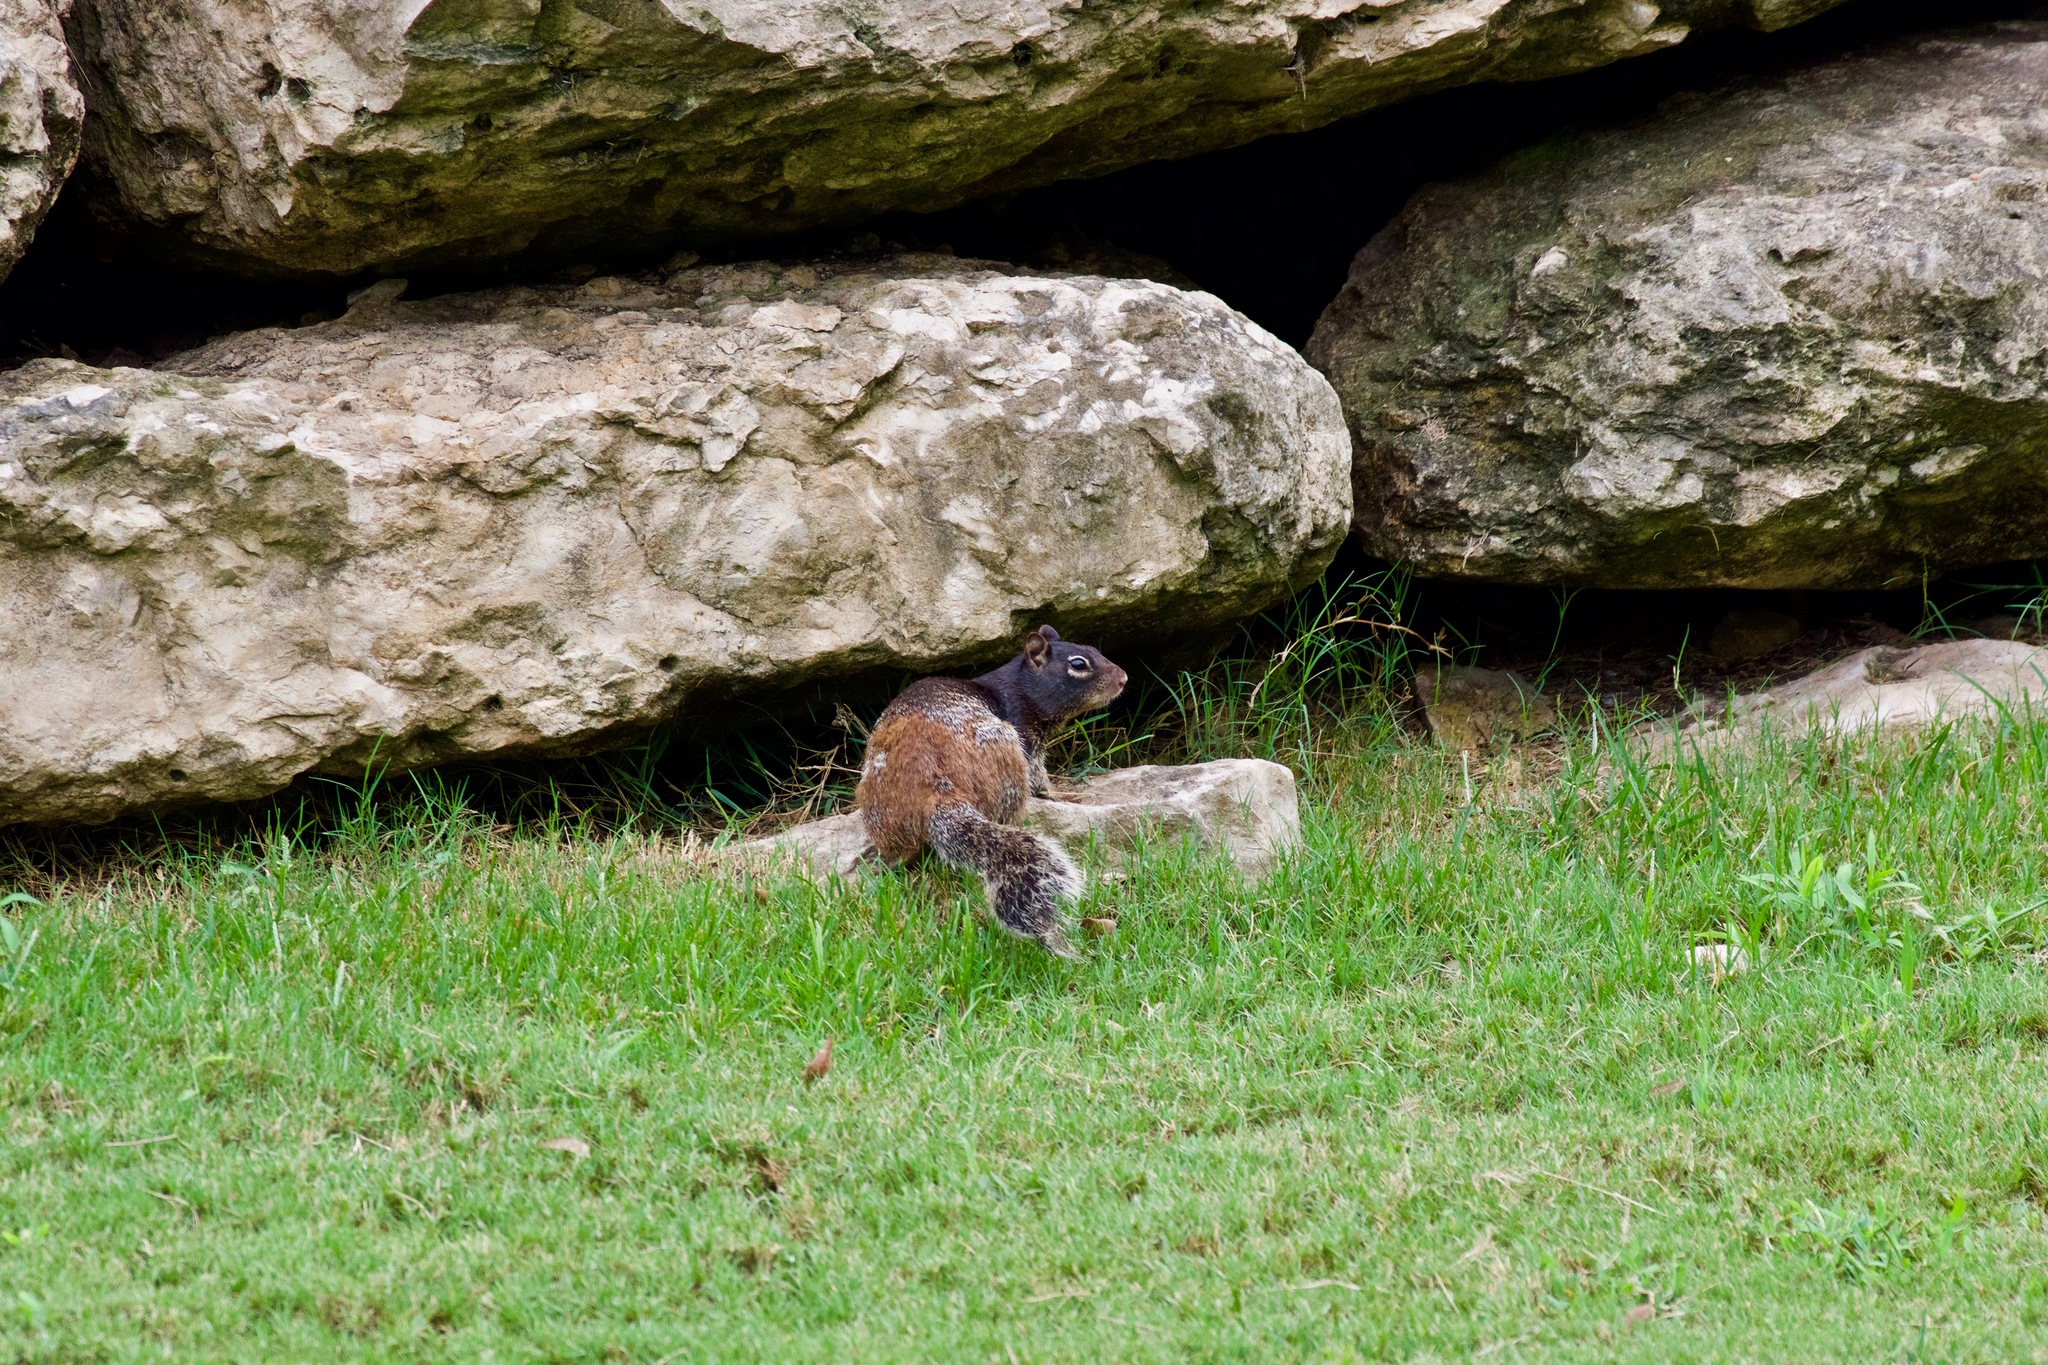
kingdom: Animalia
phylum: Chordata
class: Mammalia
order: Rodentia
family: Sciuridae
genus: Otospermophilus
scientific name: Otospermophilus variegatus
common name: Rock squirrel
